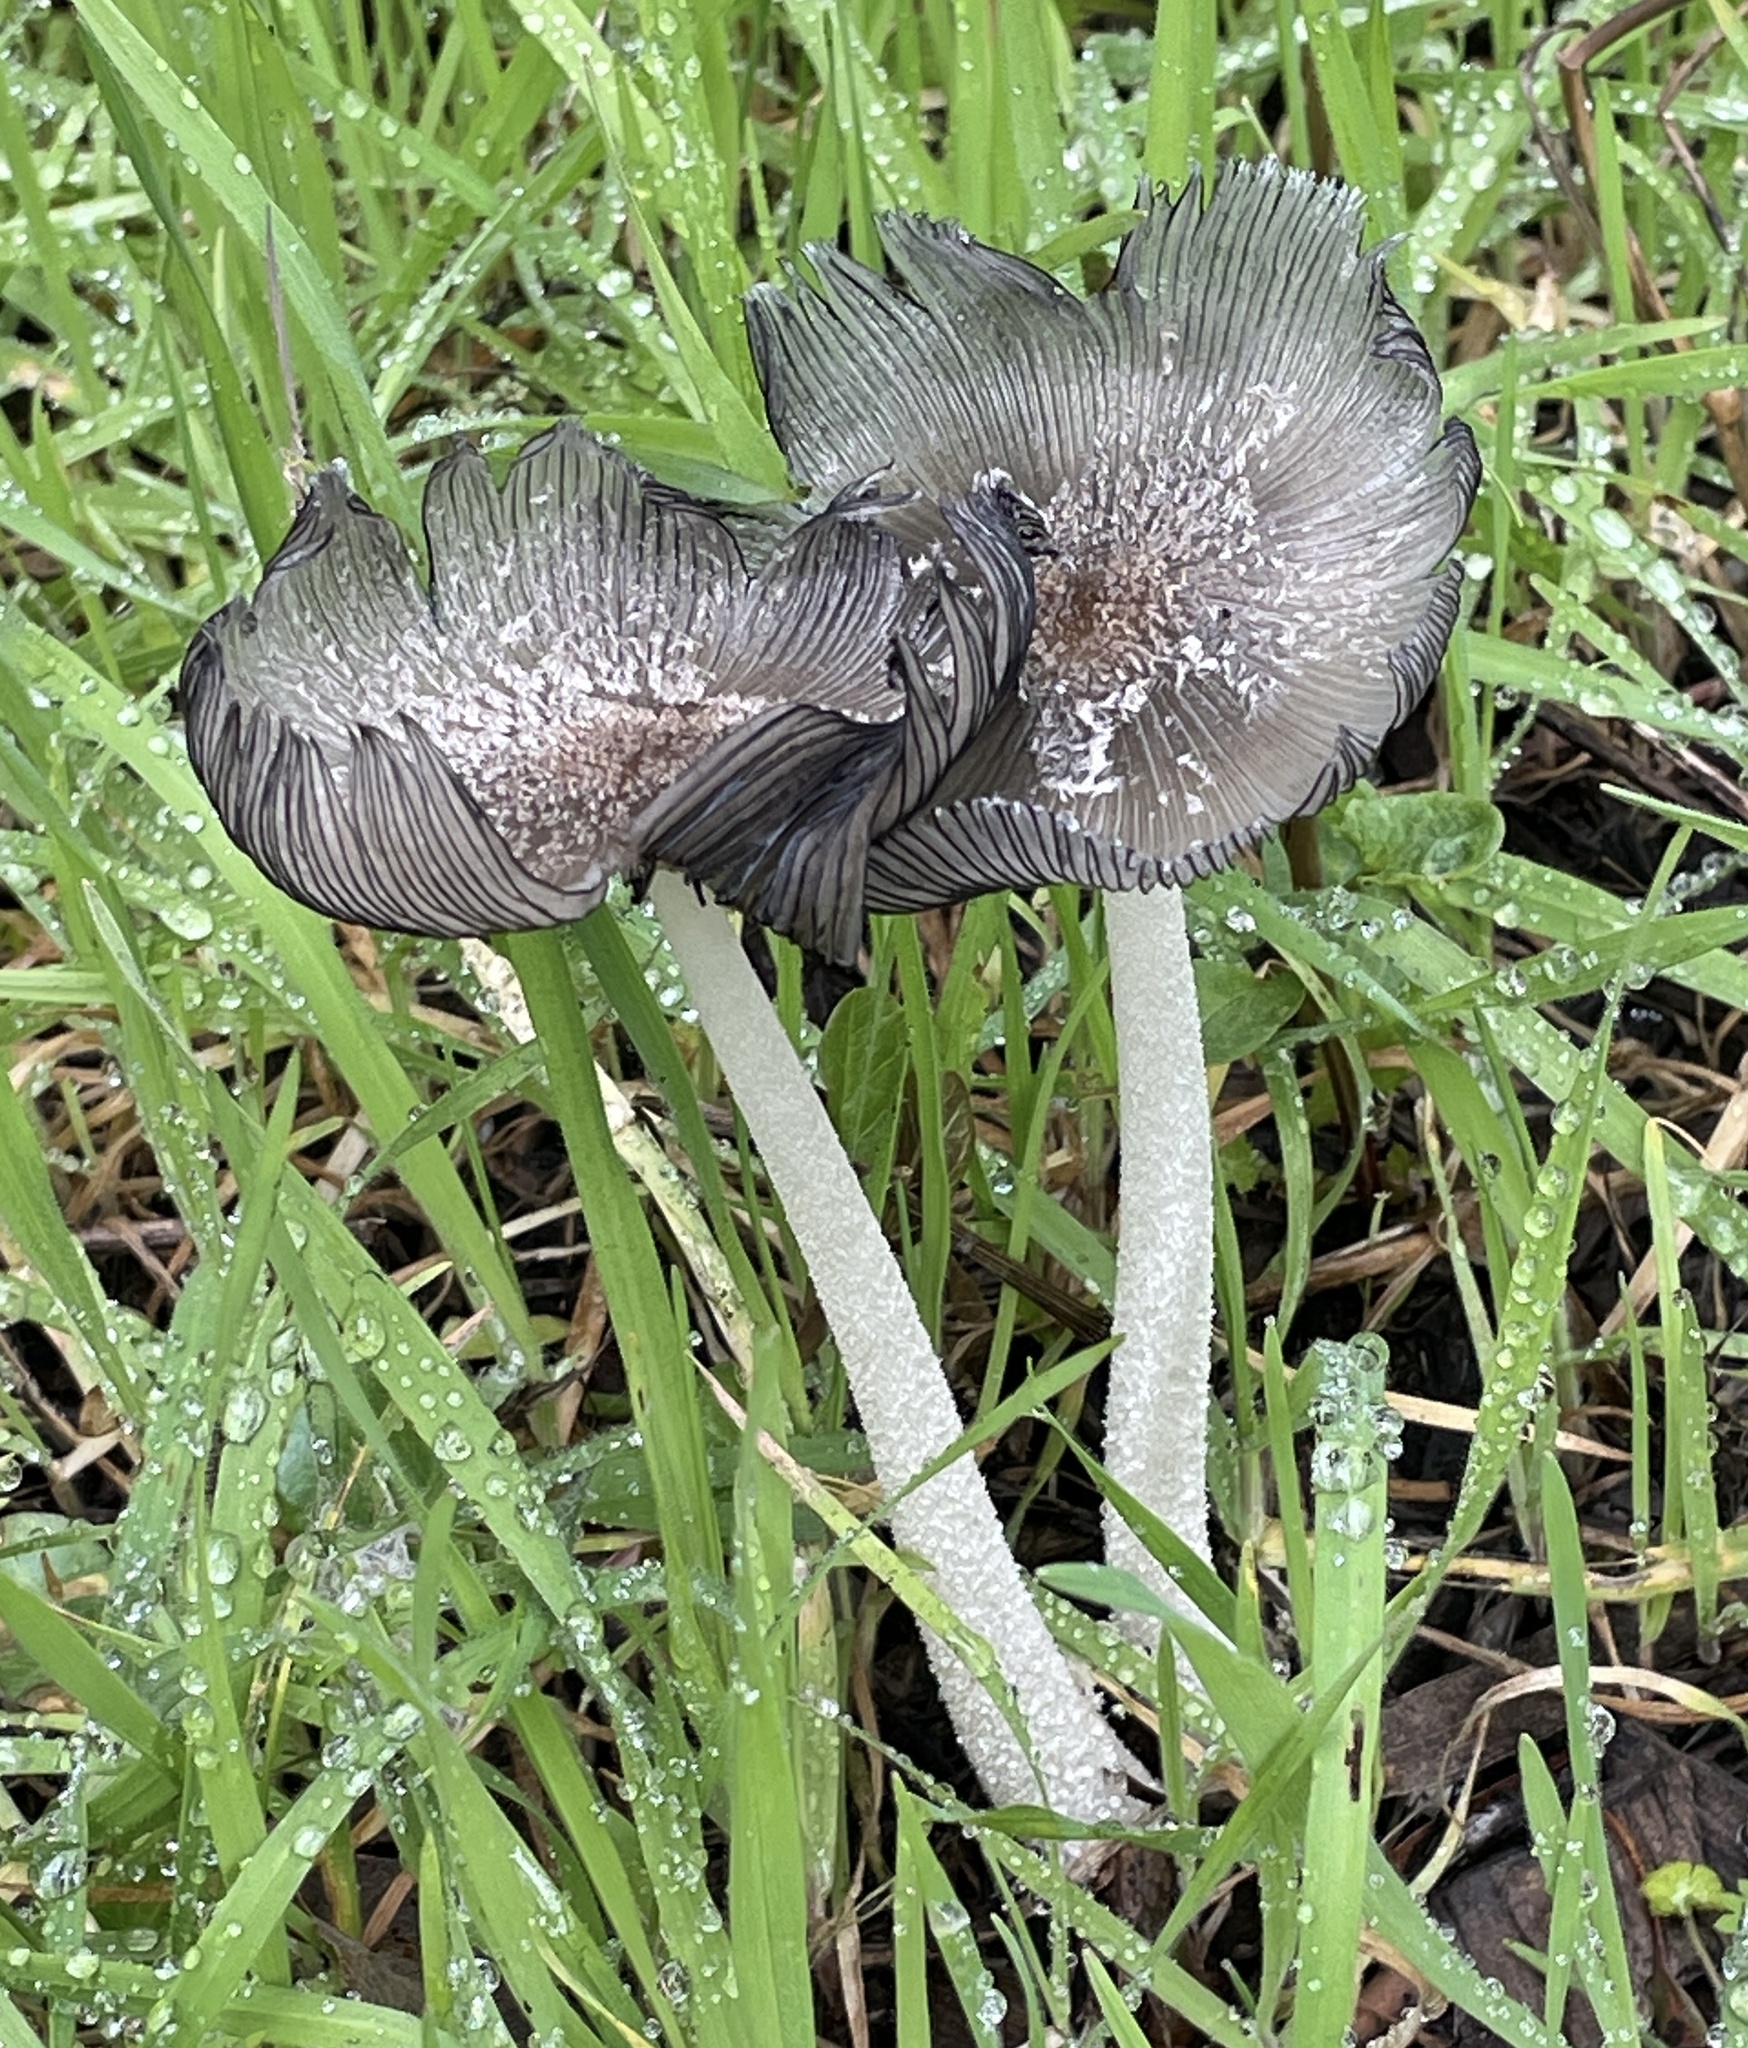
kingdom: Fungi
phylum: Basidiomycota
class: Agaricomycetes
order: Agaricales
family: Psathyrellaceae
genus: Parasola
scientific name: Parasola auricoma
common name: Goldenhaired inkcap
